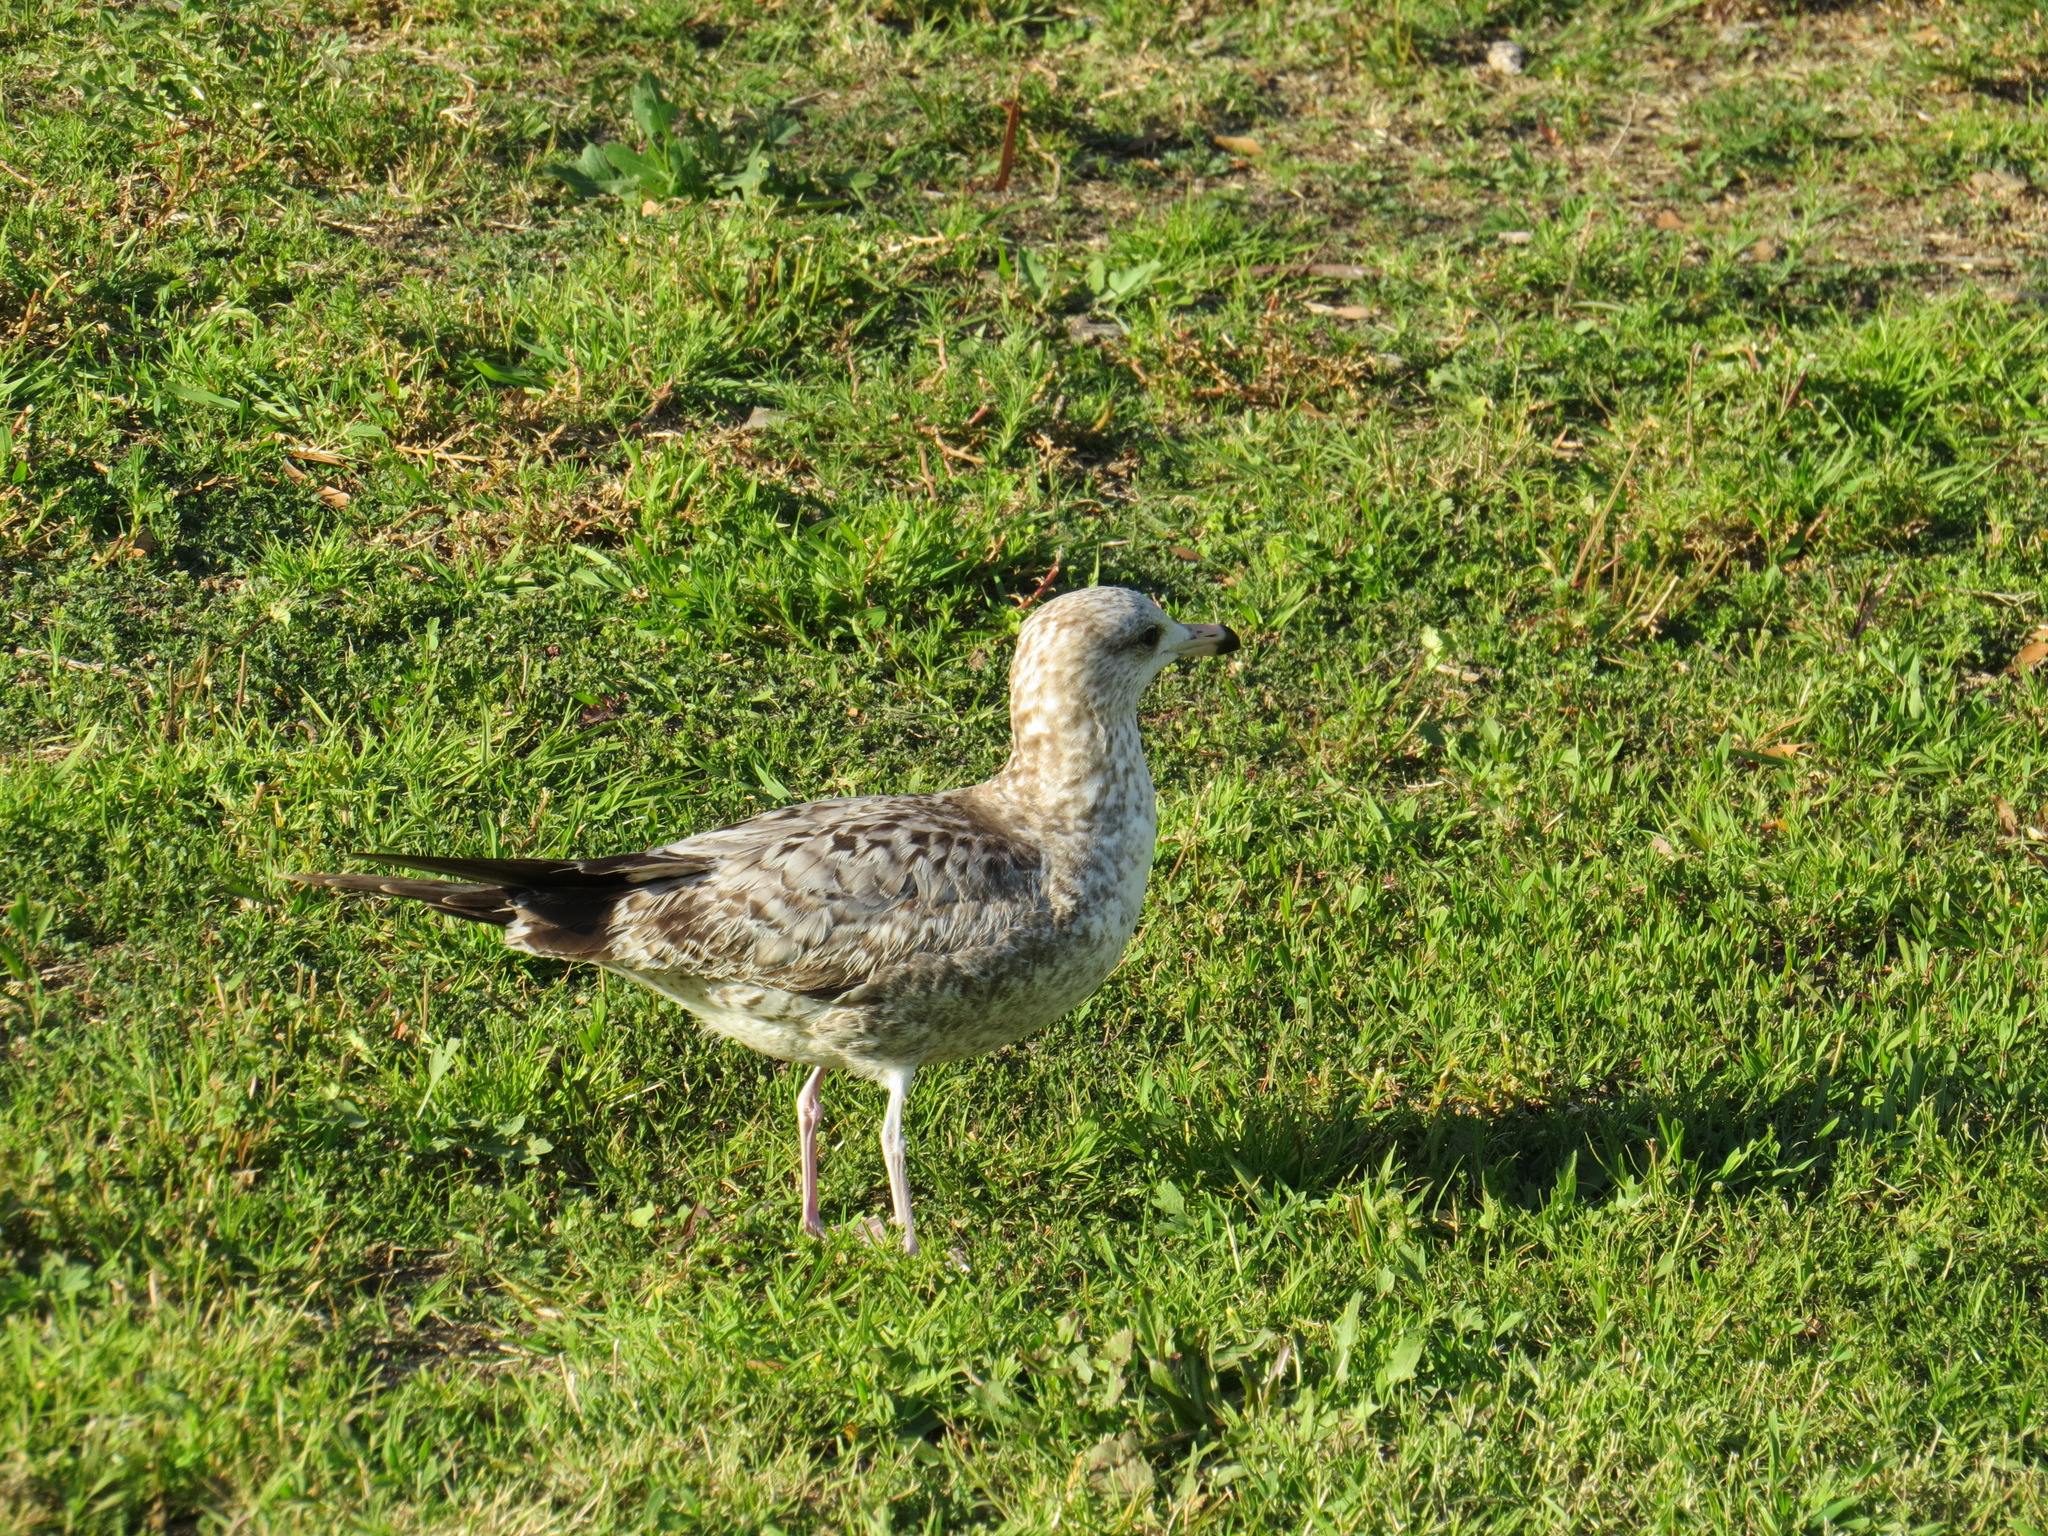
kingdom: Animalia
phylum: Chordata
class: Aves
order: Charadriiformes
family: Laridae
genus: Larus
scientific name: Larus californicus
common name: California gull
